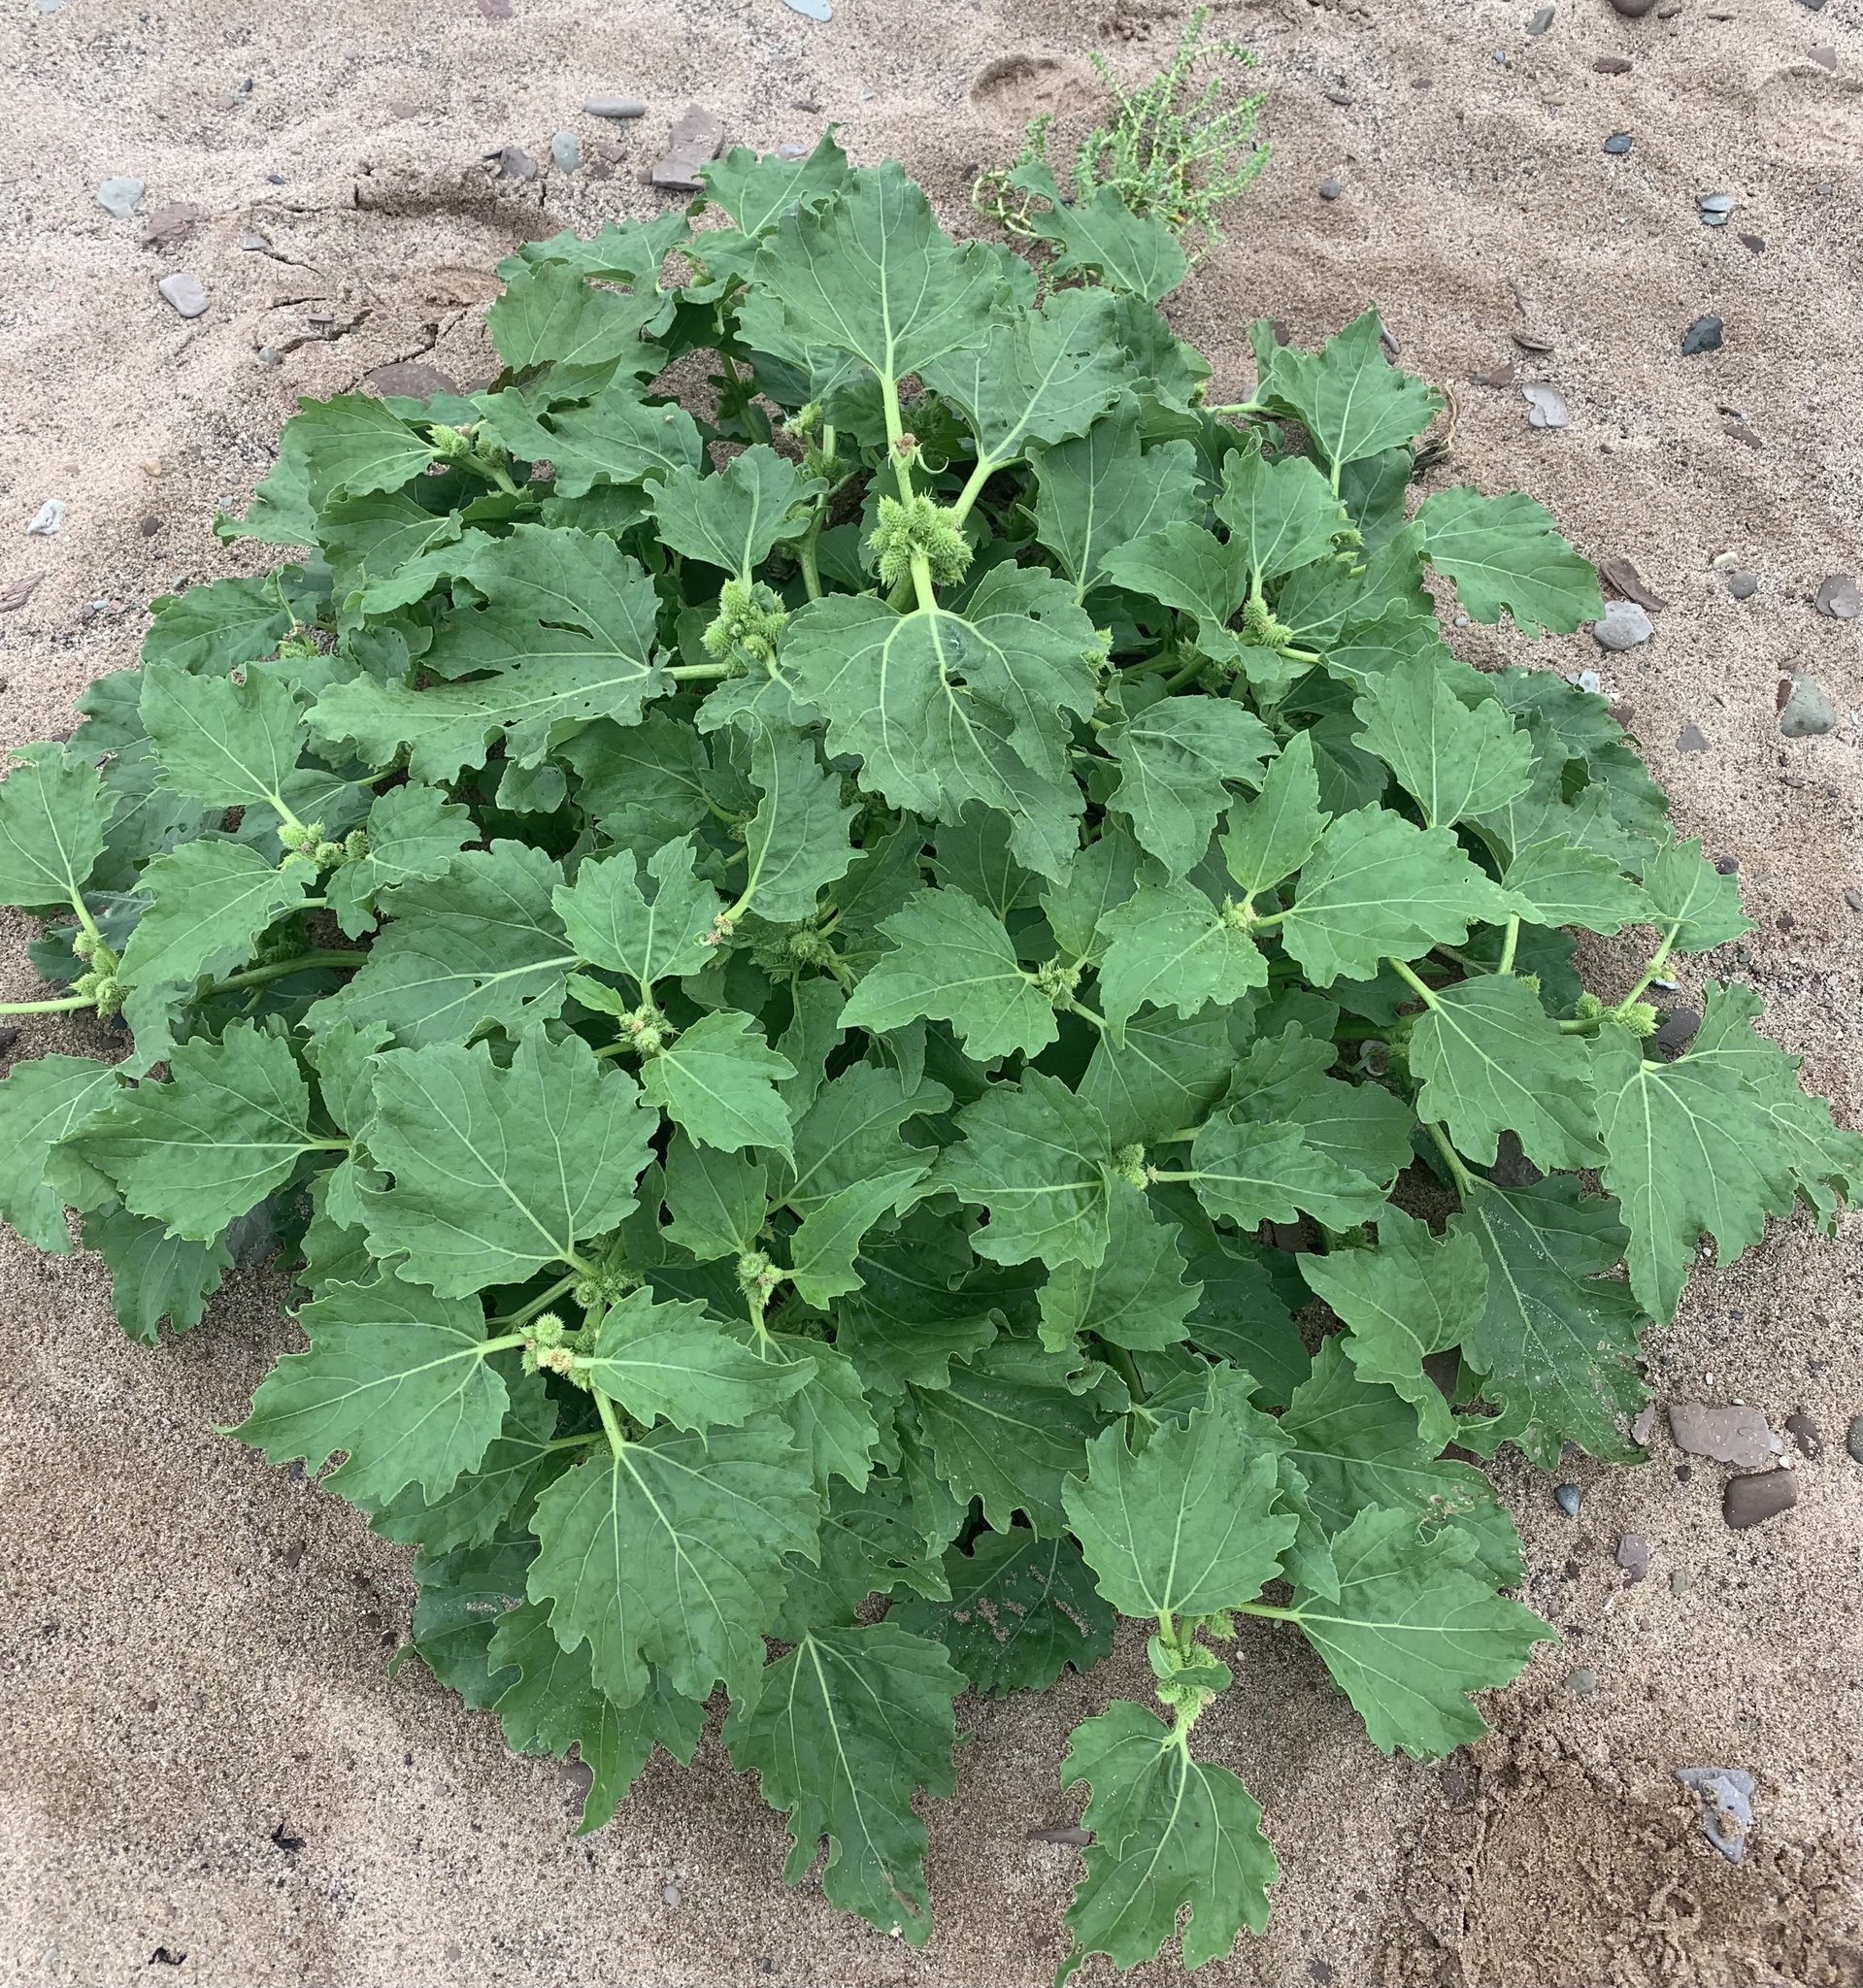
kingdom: Plantae
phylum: Tracheophyta
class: Magnoliopsida
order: Asterales
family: Asteraceae
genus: Xanthium
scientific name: Xanthium strumarium
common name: Rough cocklebur
